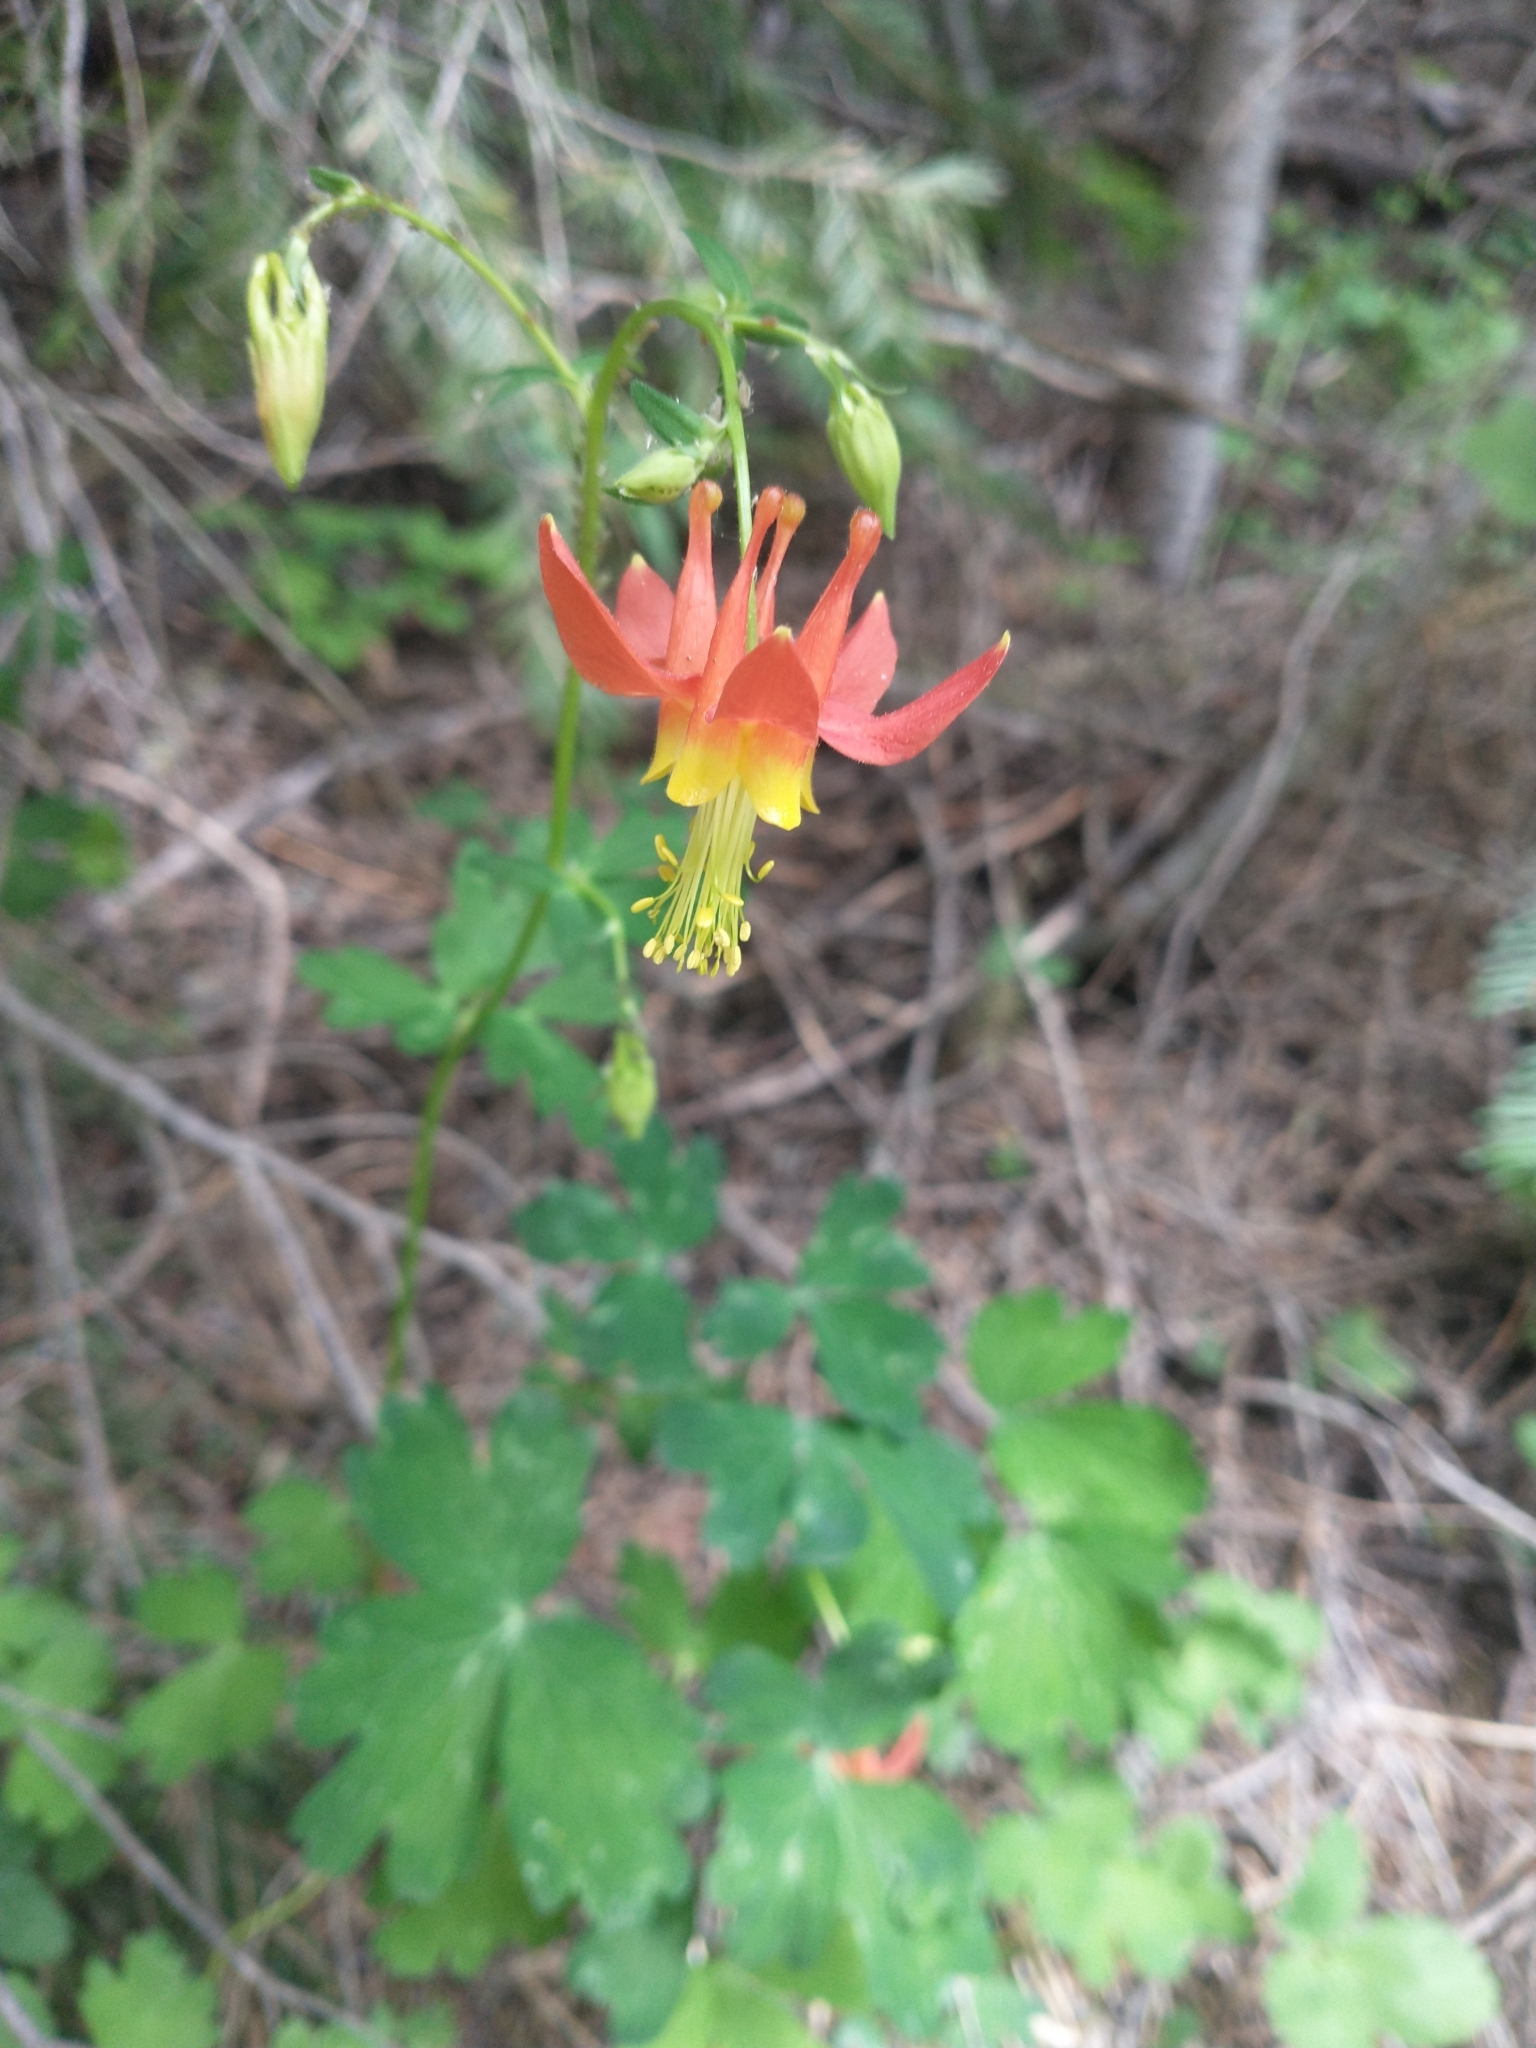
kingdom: Plantae
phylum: Tracheophyta
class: Magnoliopsida
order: Ranunculales
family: Ranunculaceae
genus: Aquilegia
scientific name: Aquilegia formosa
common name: Sitka columbine
